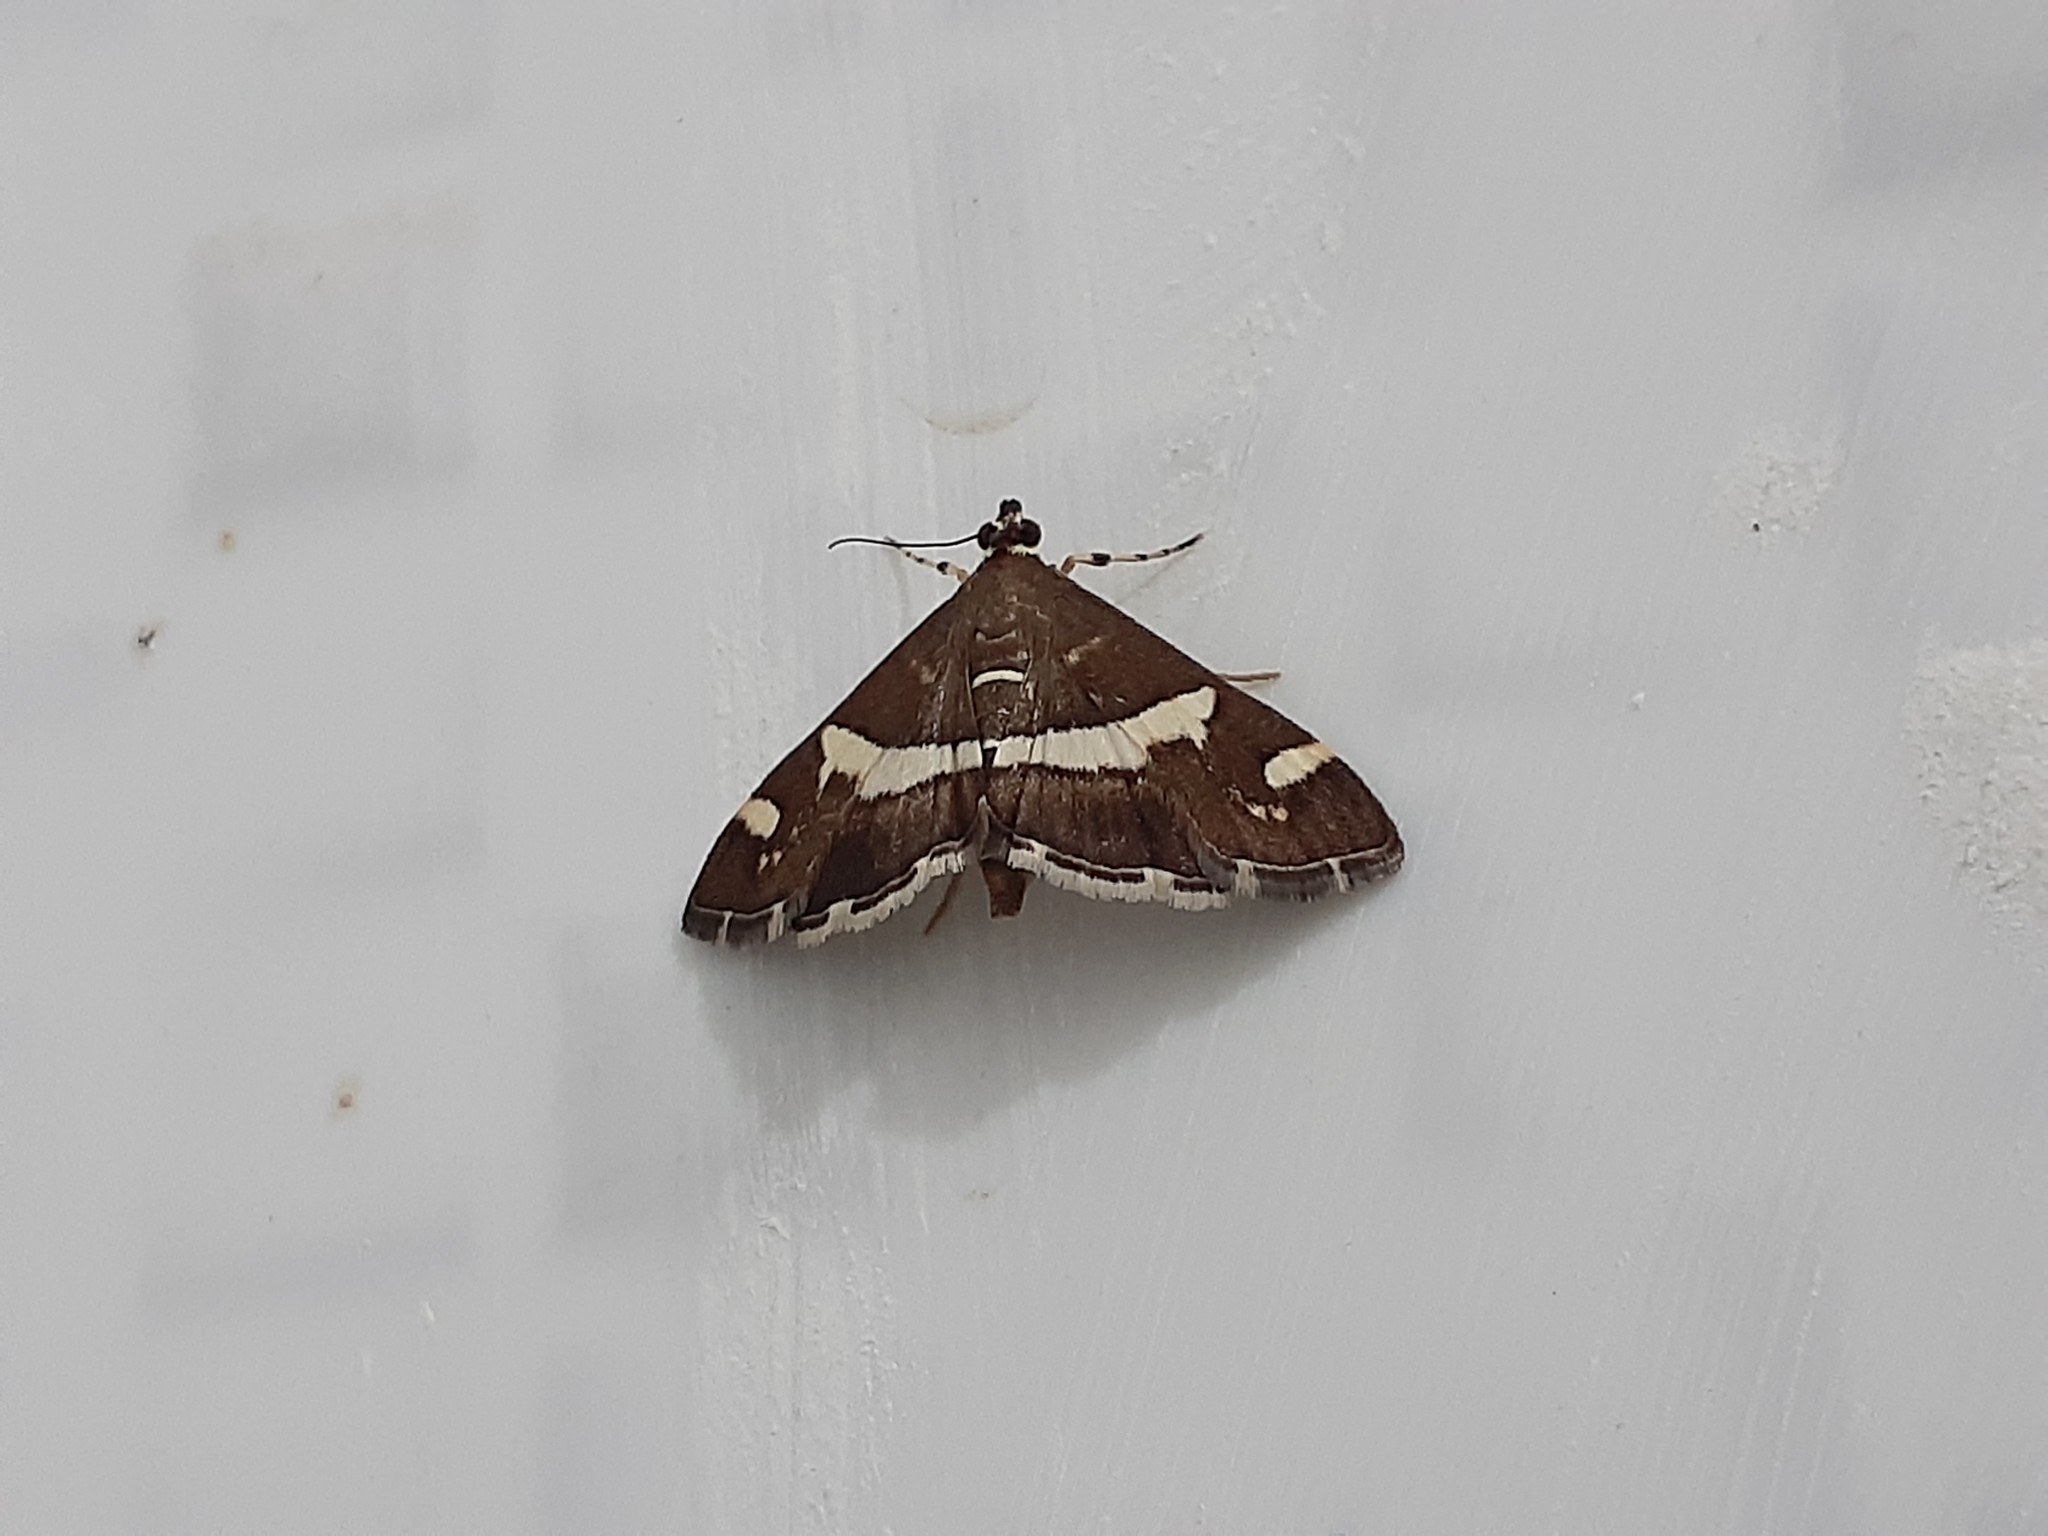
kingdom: Animalia
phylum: Arthropoda
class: Insecta
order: Lepidoptera
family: Crambidae
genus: Spoladea
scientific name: Spoladea recurvalis
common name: Beet webworm moth
